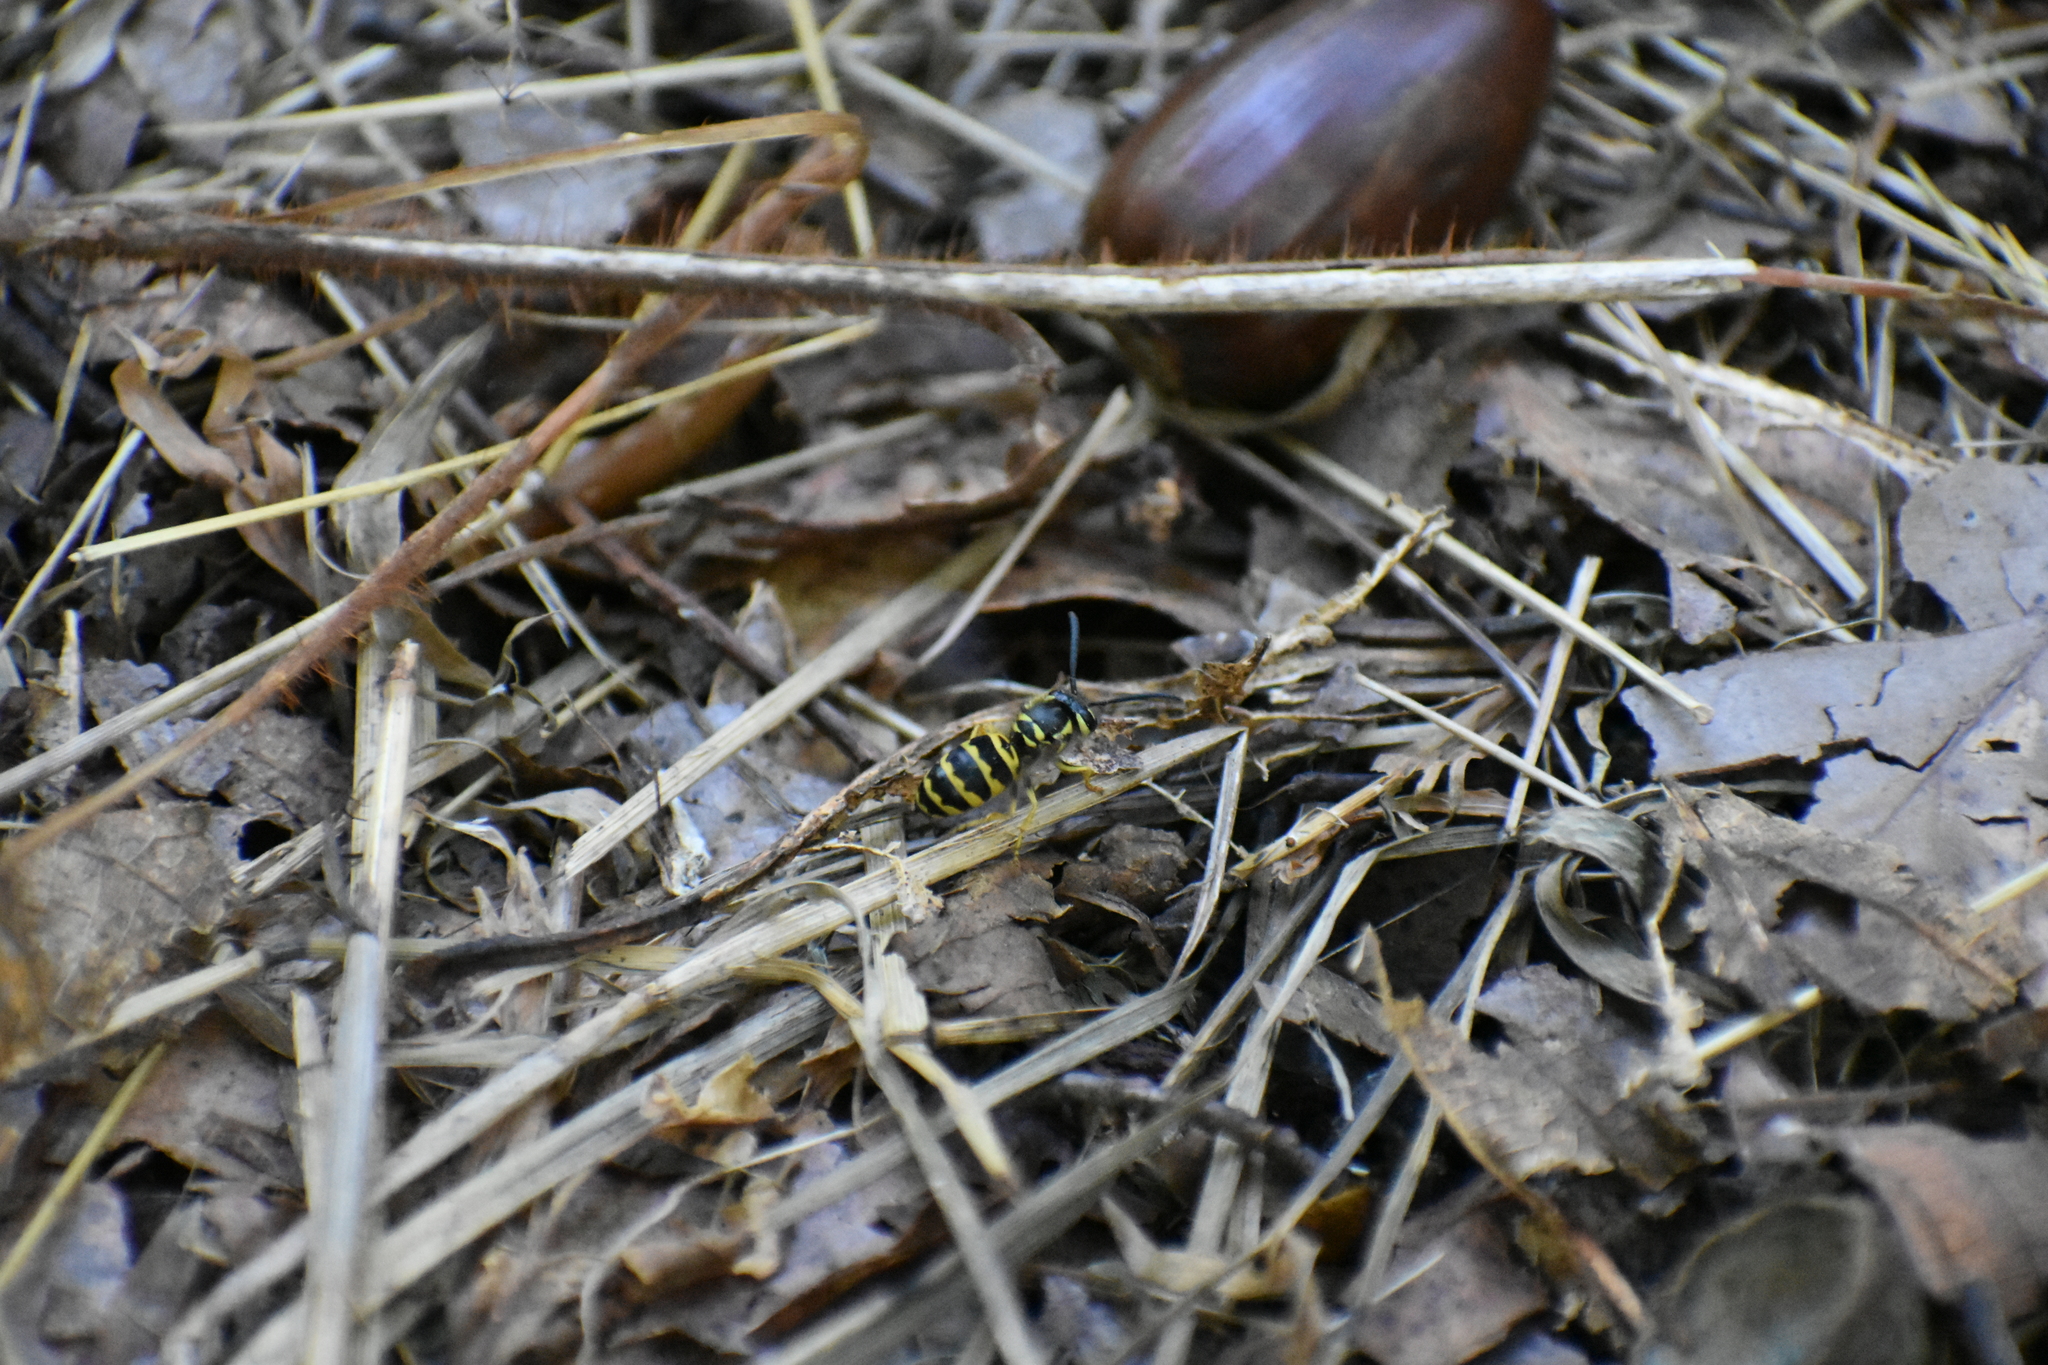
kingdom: Animalia
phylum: Arthropoda
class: Insecta
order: Hymenoptera
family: Vespidae
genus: Vespula
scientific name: Vespula maculifrons
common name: Eastern yellowjacket
